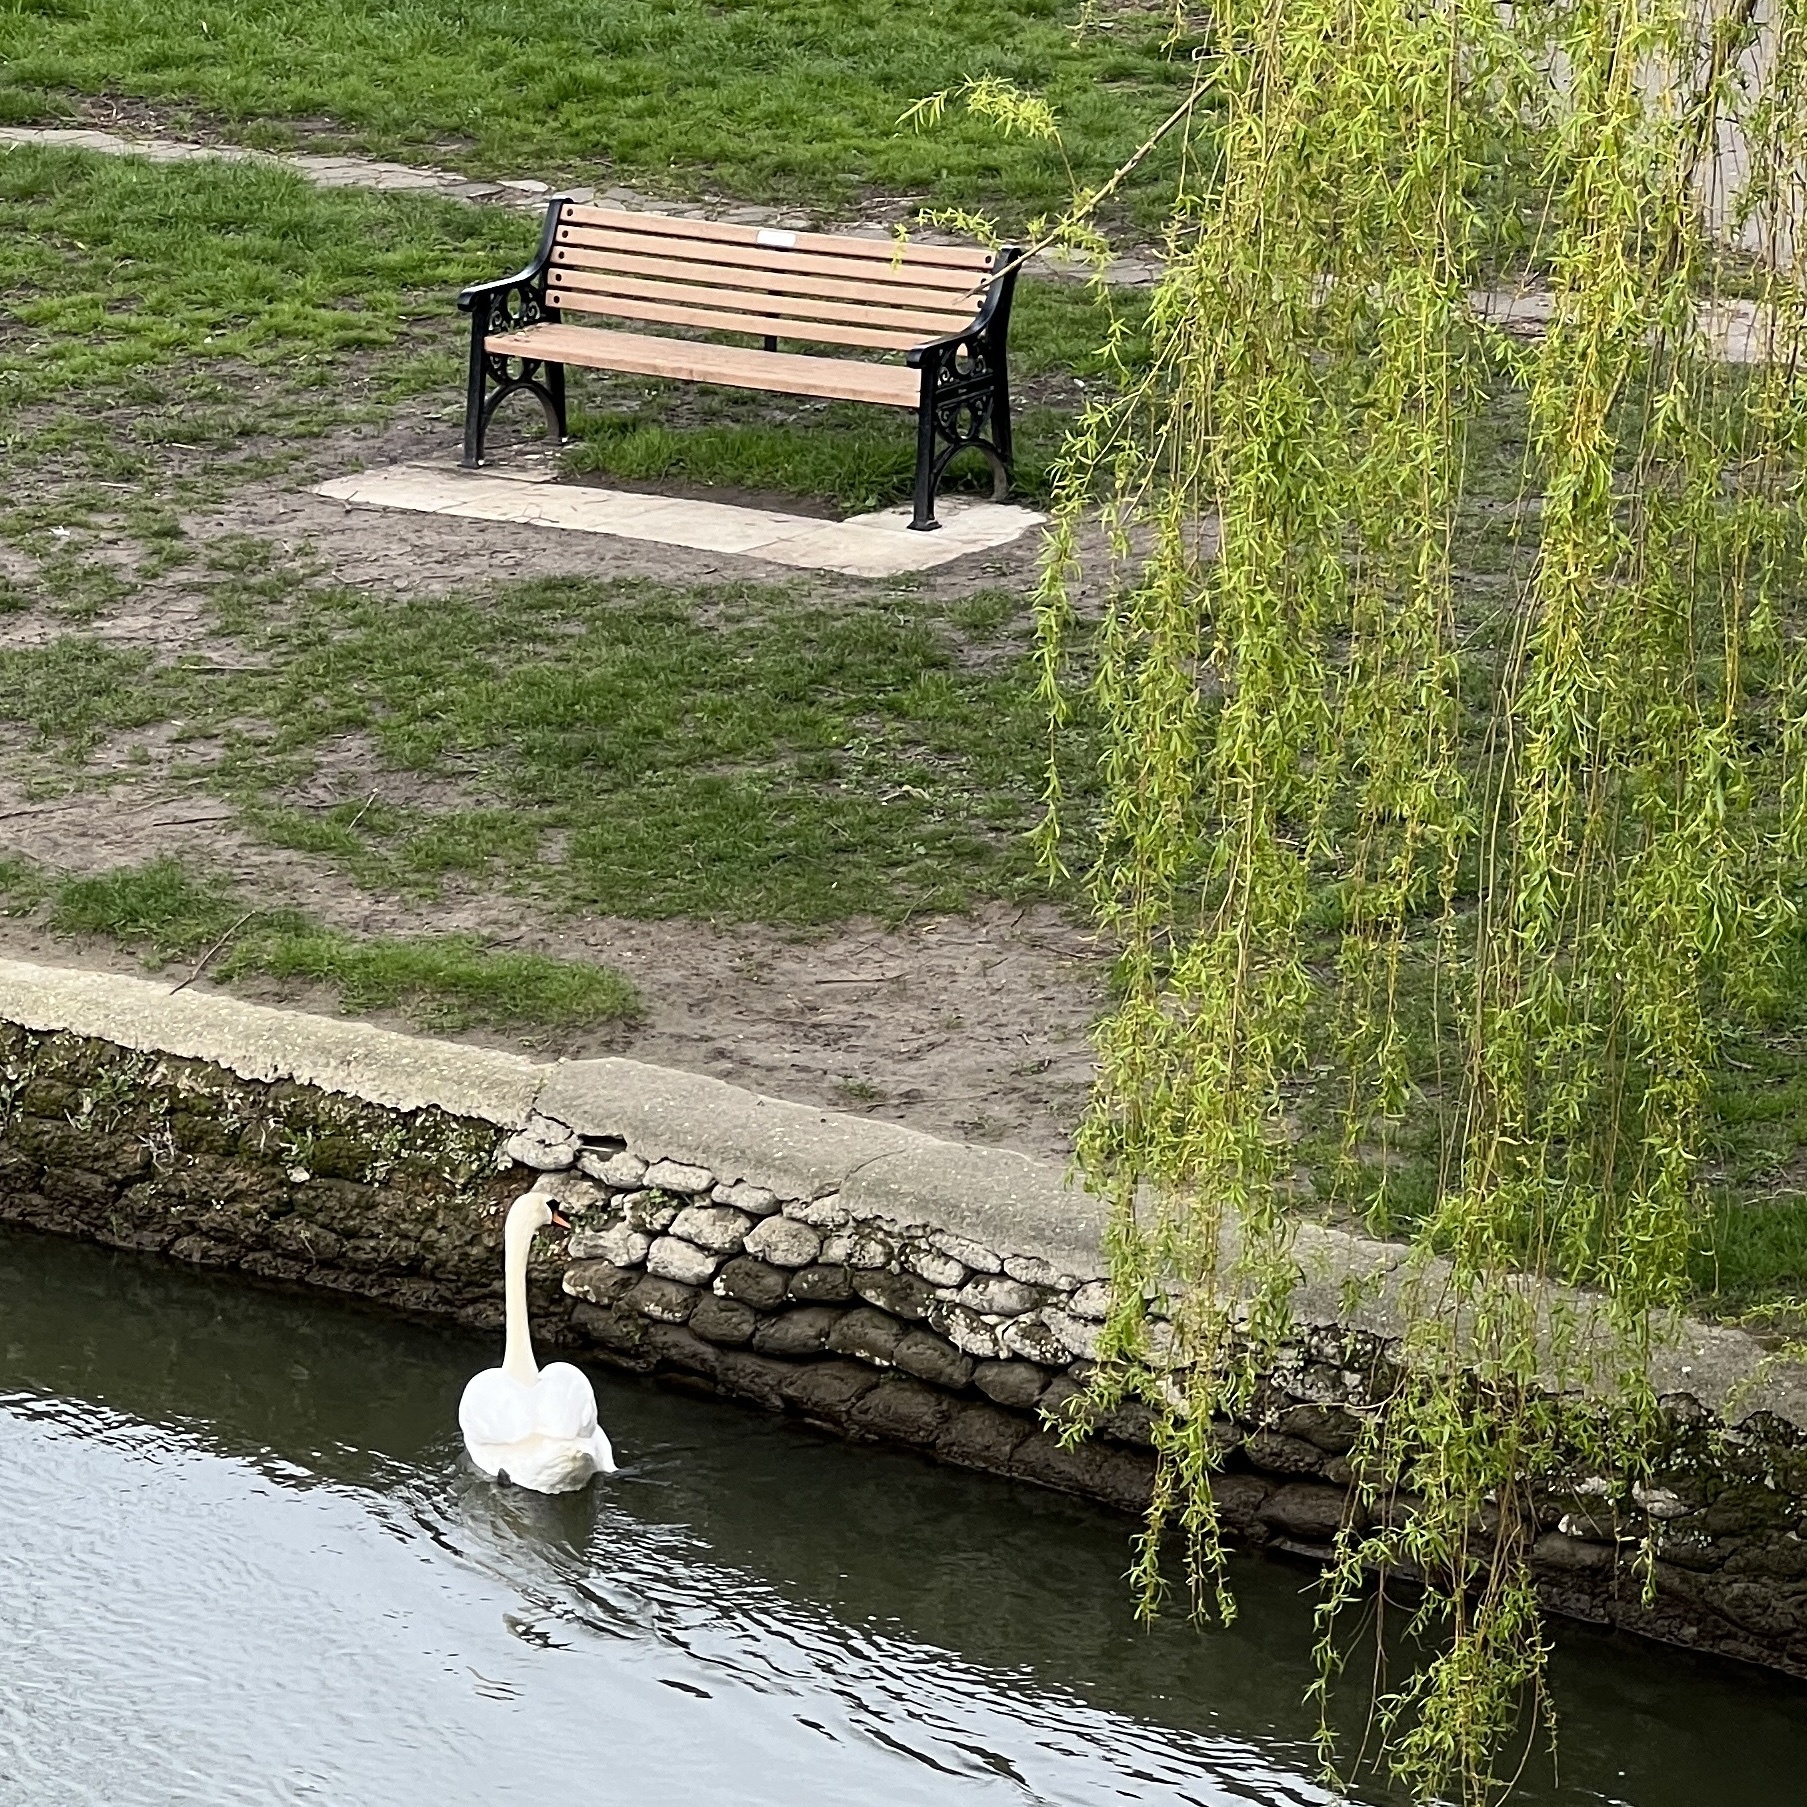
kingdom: Animalia
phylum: Chordata
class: Aves
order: Anseriformes
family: Anatidae
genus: Cygnus
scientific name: Cygnus olor
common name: Mute swan
